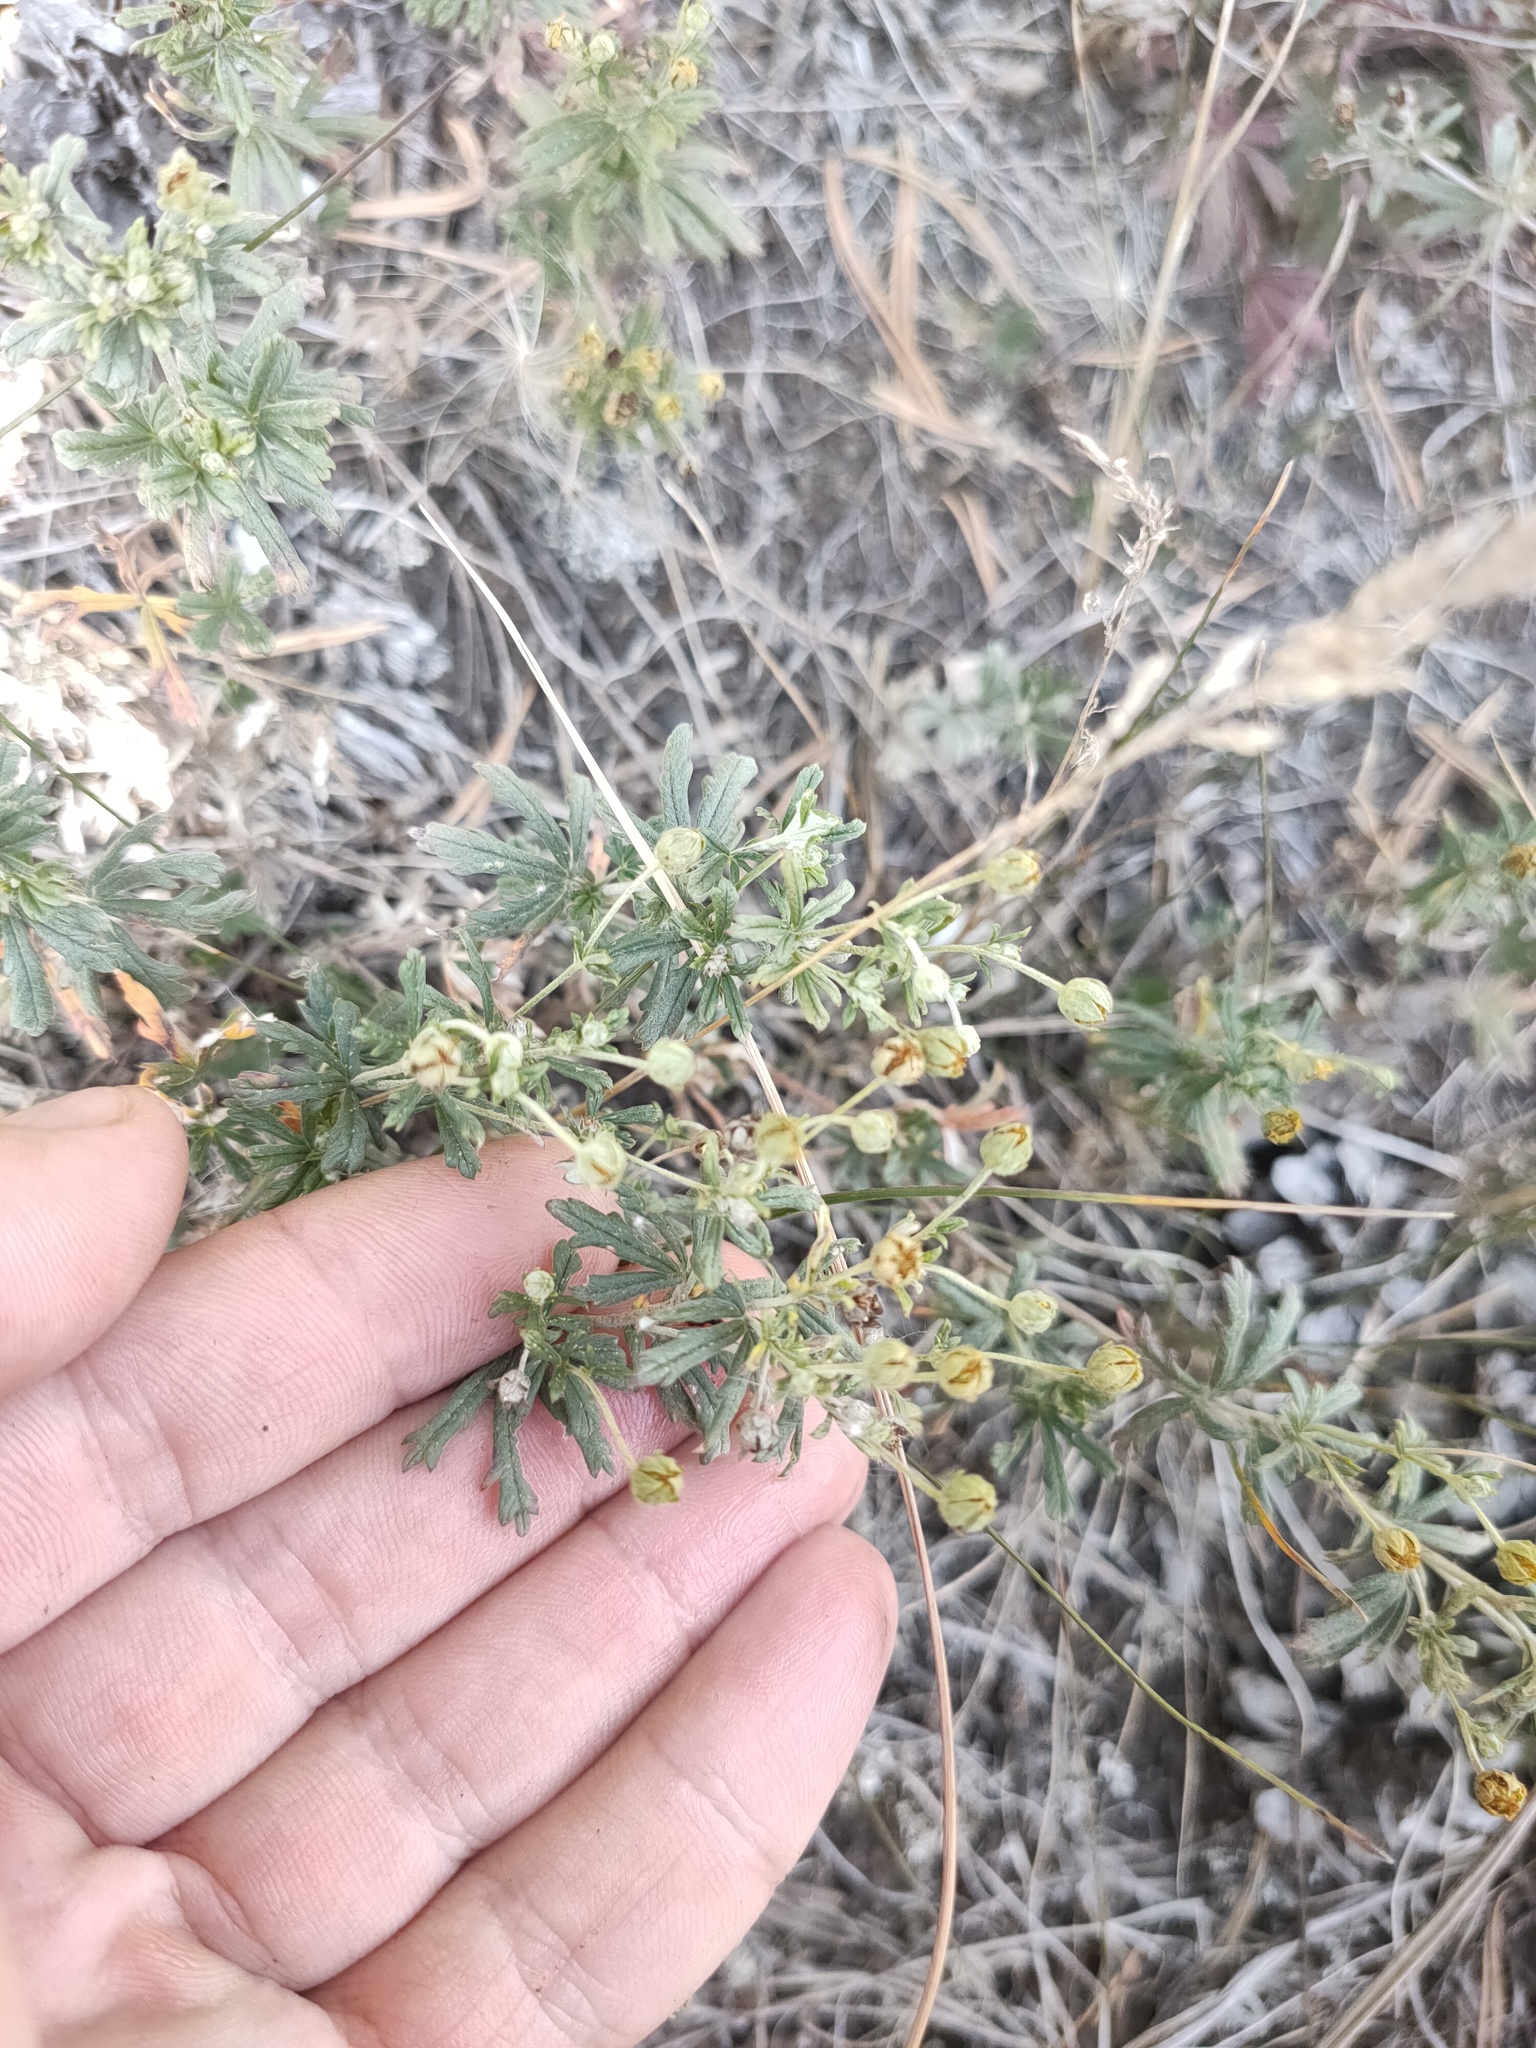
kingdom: Plantae
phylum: Tracheophyta
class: Magnoliopsida
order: Rosales
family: Rosaceae
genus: Potentilla
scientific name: Potentilla argentea
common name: Hoary cinquefoil
